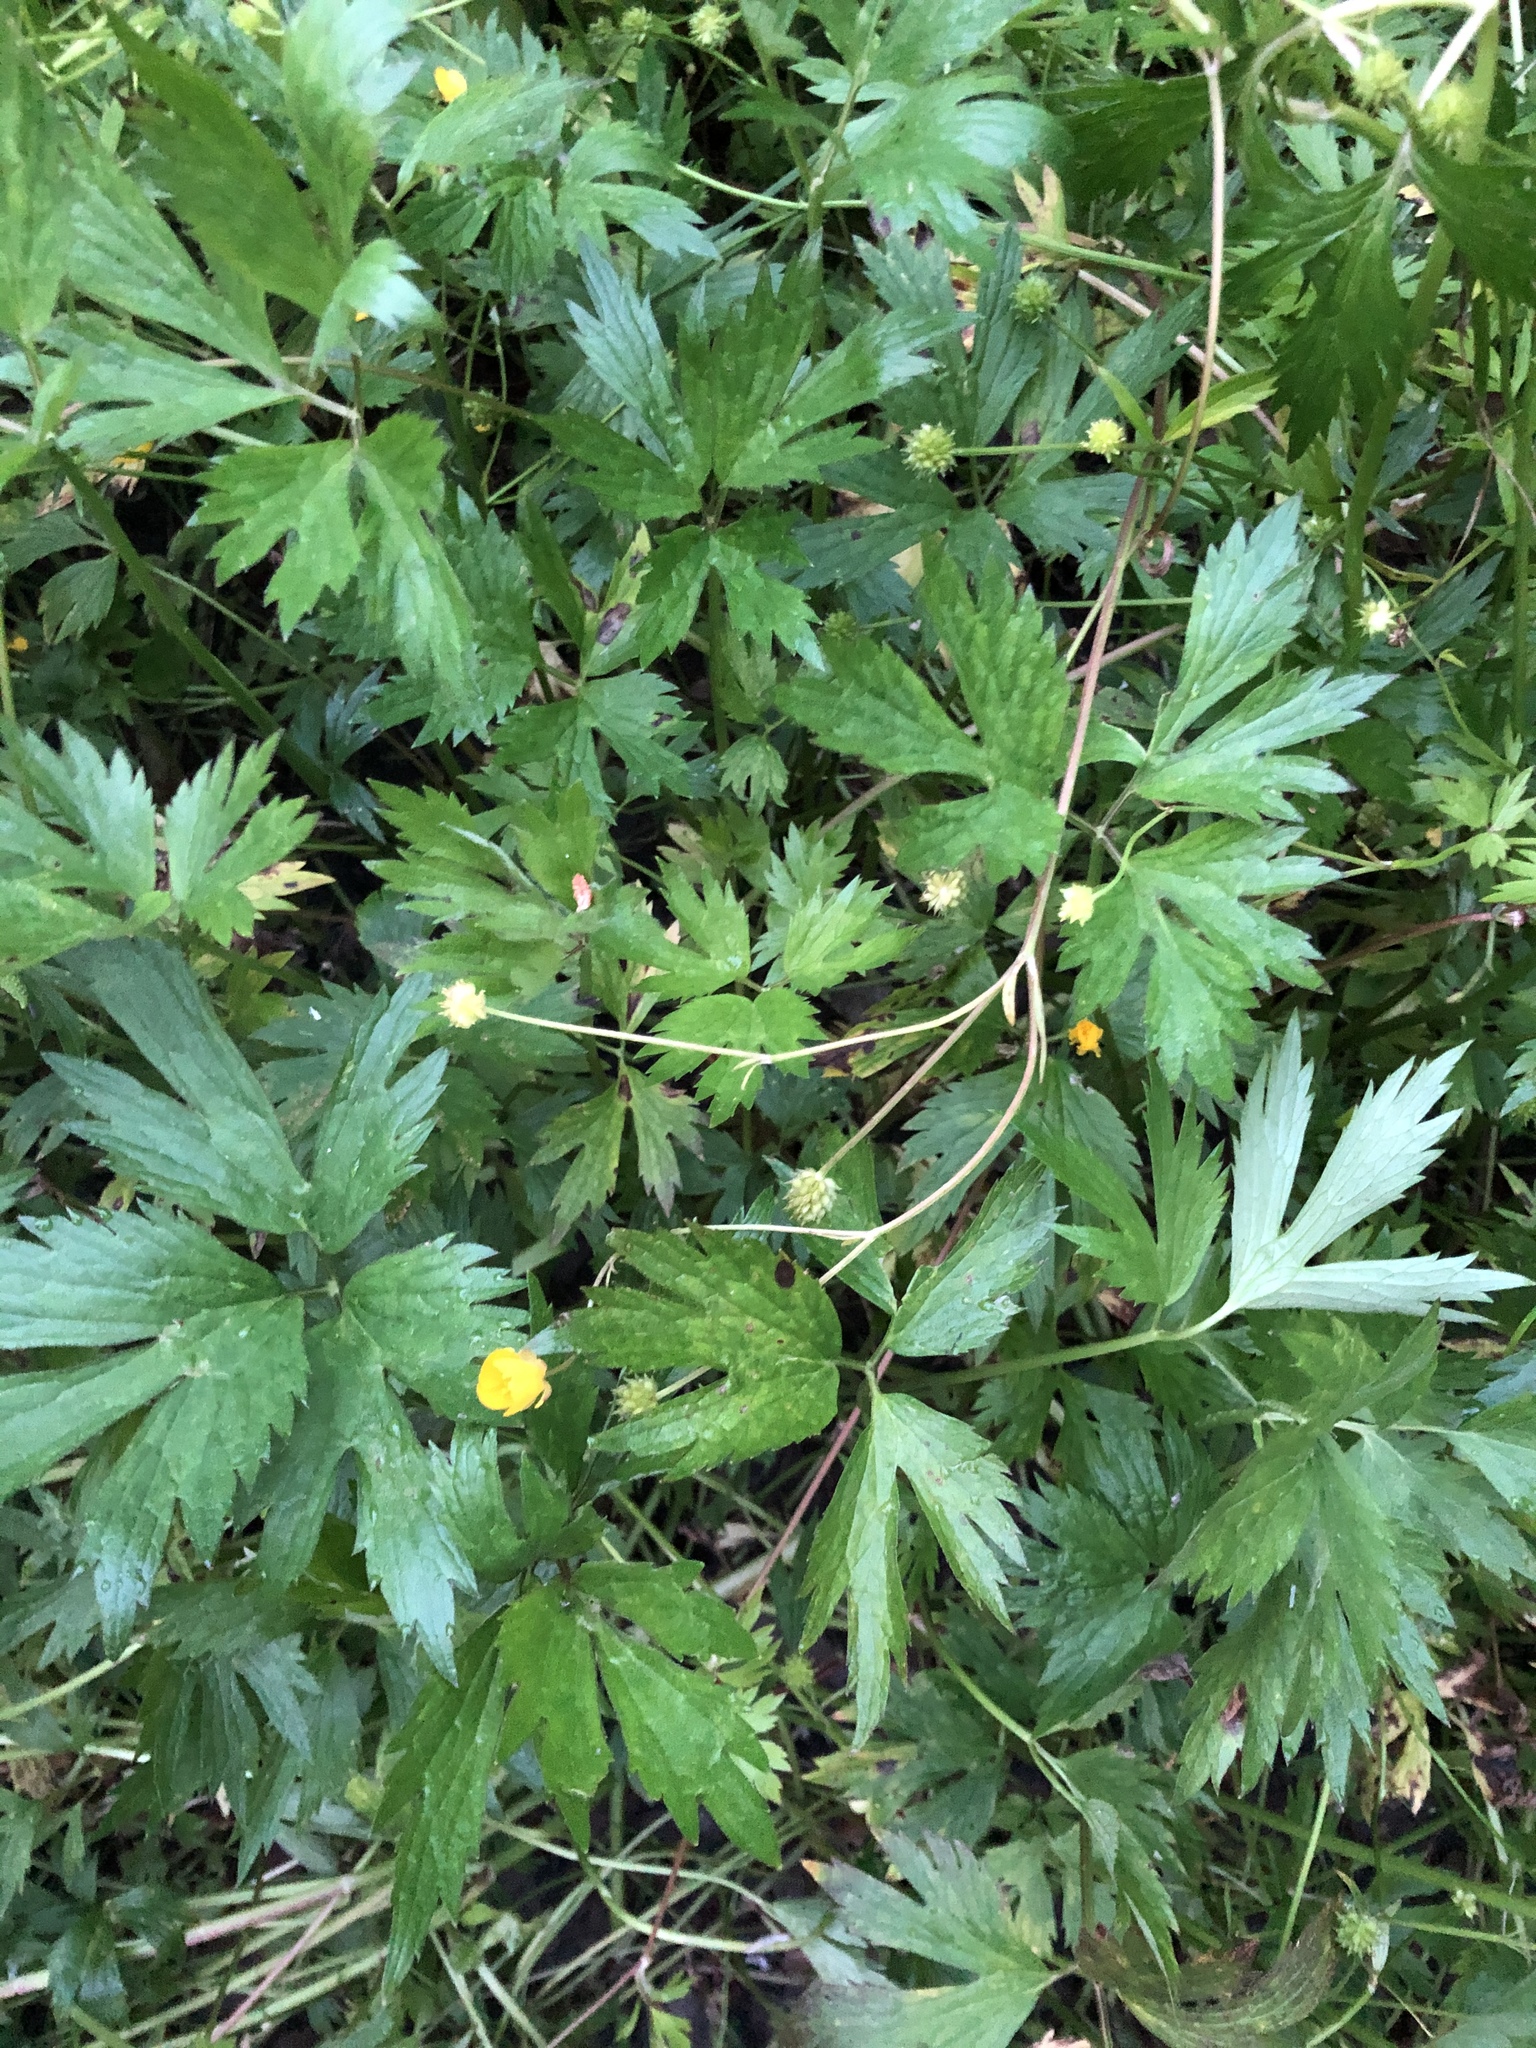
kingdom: Plantae
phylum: Tracheophyta
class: Magnoliopsida
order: Ranunculales
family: Ranunculaceae
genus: Ranunculus
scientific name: Ranunculus repens
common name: Creeping buttercup
